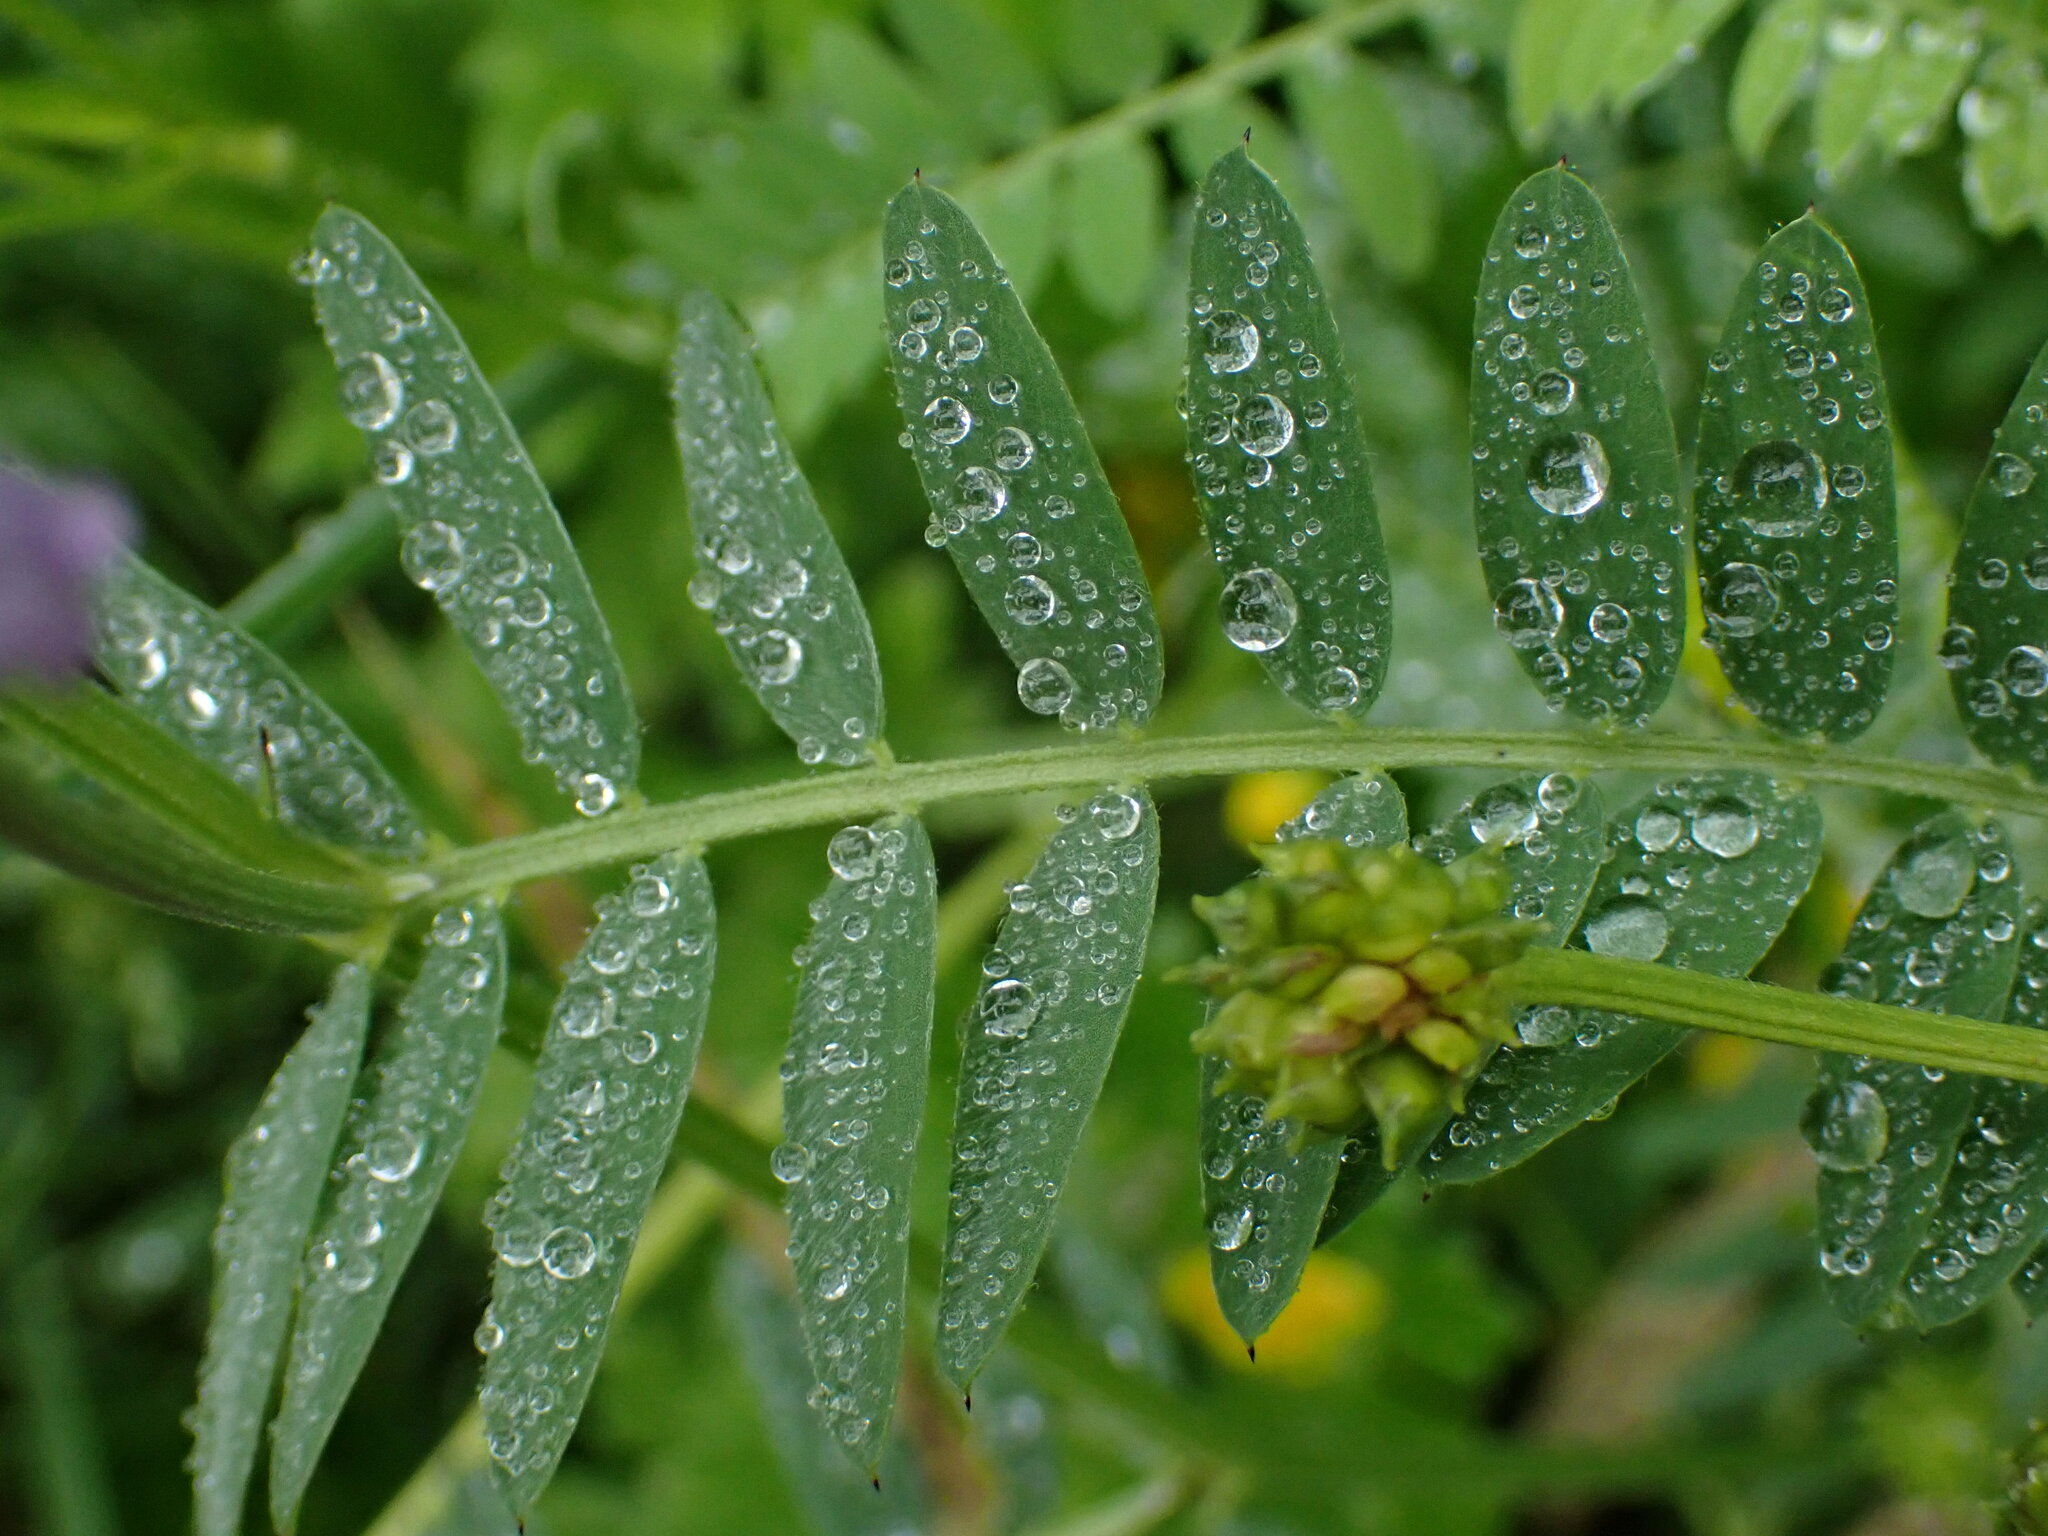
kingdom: Plantae
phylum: Tracheophyta
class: Magnoliopsida
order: Fabales
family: Fabaceae
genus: Vicia
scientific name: Vicia cracca
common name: Bird vetch
